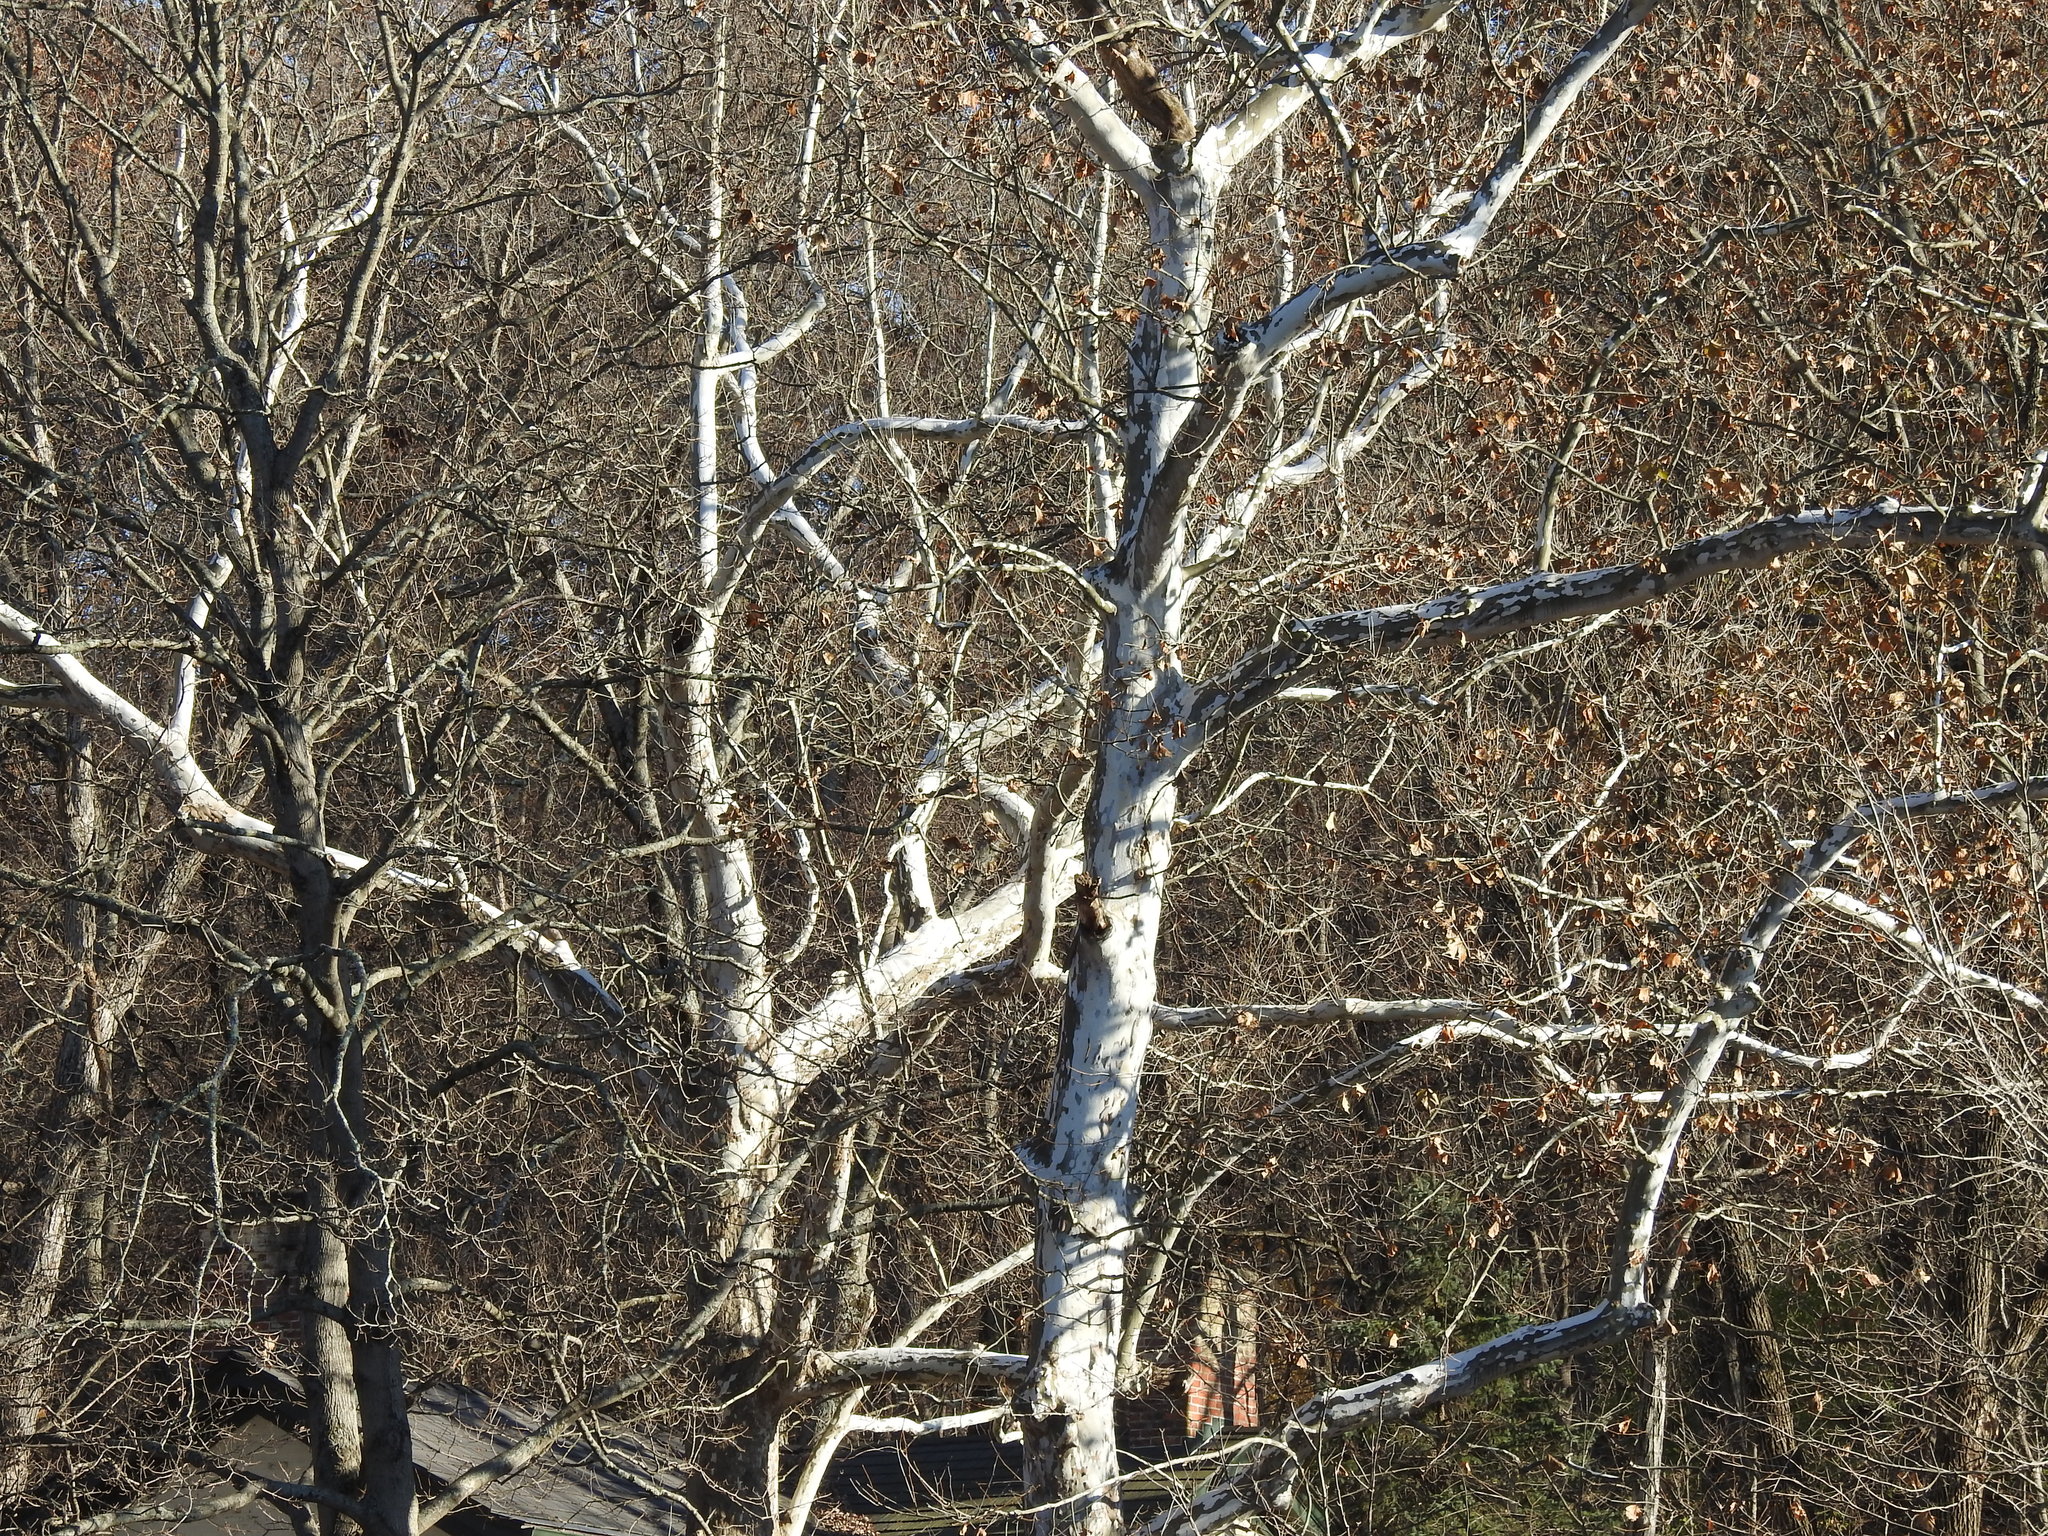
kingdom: Plantae
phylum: Tracheophyta
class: Magnoliopsida
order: Proteales
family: Platanaceae
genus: Platanus
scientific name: Platanus occidentalis
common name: American sycamore
